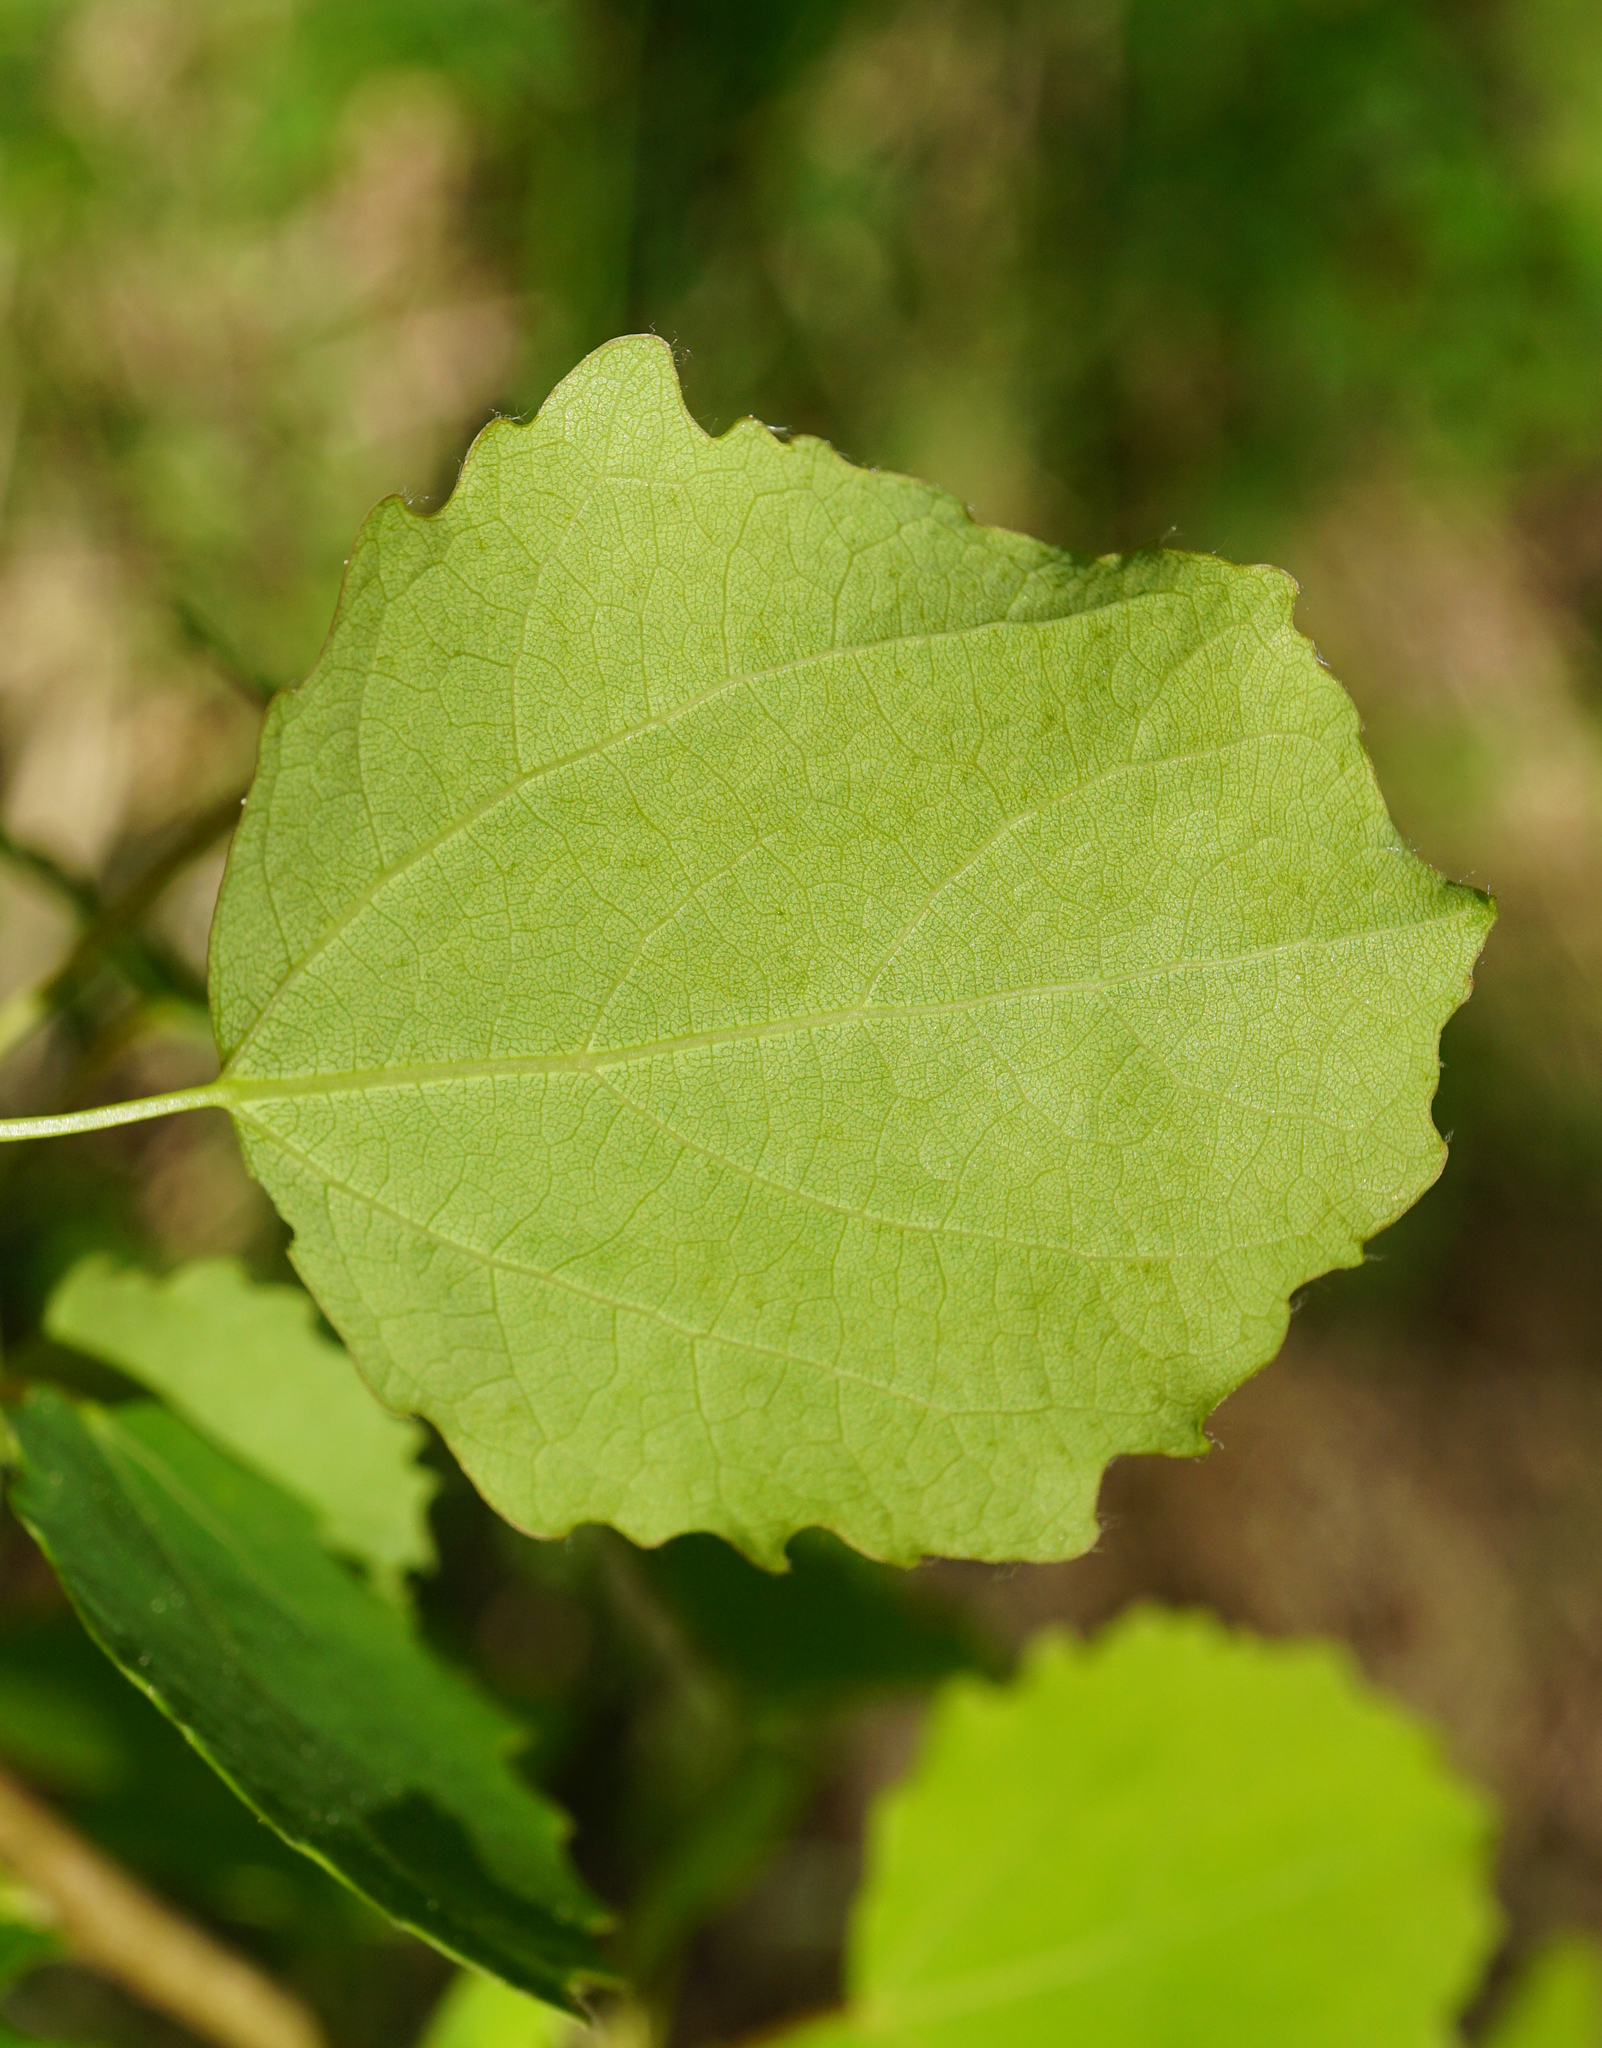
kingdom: Plantae
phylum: Tracheophyta
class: Magnoliopsida
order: Malpighiales
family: Salicaceae
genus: Populus
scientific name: Populus tremula
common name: European aspen
